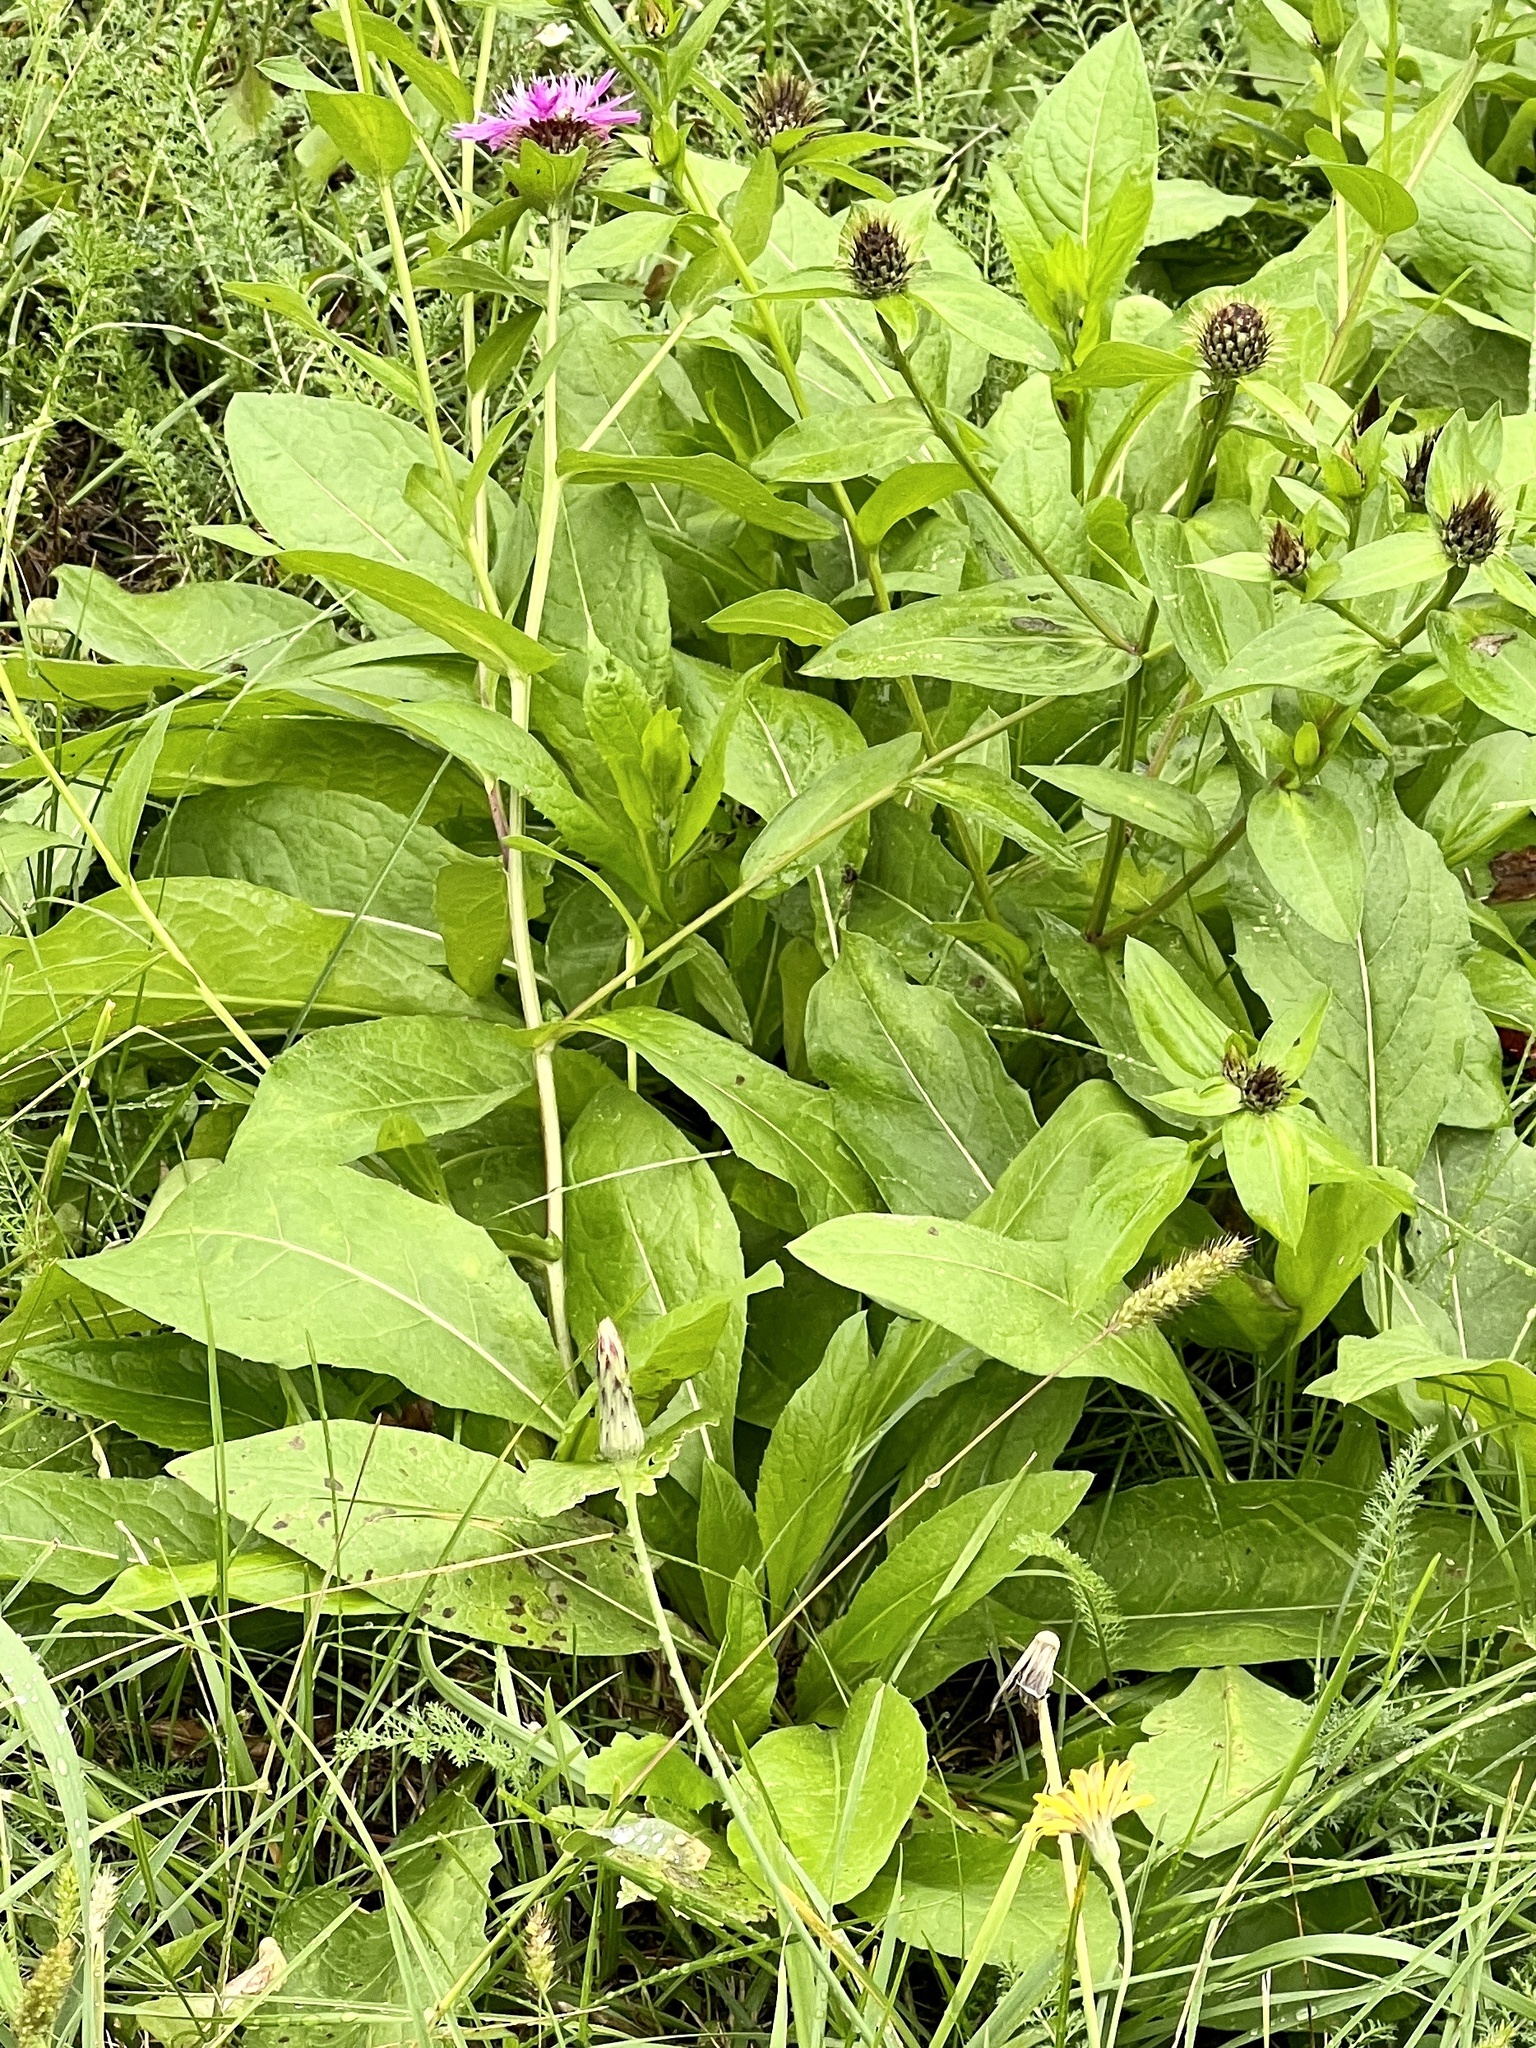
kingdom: Plantae
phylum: Tracheophyta
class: Magnoliopsida
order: Asterales
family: Asteraceae
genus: Centaurea
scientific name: Centaurea erdneri
